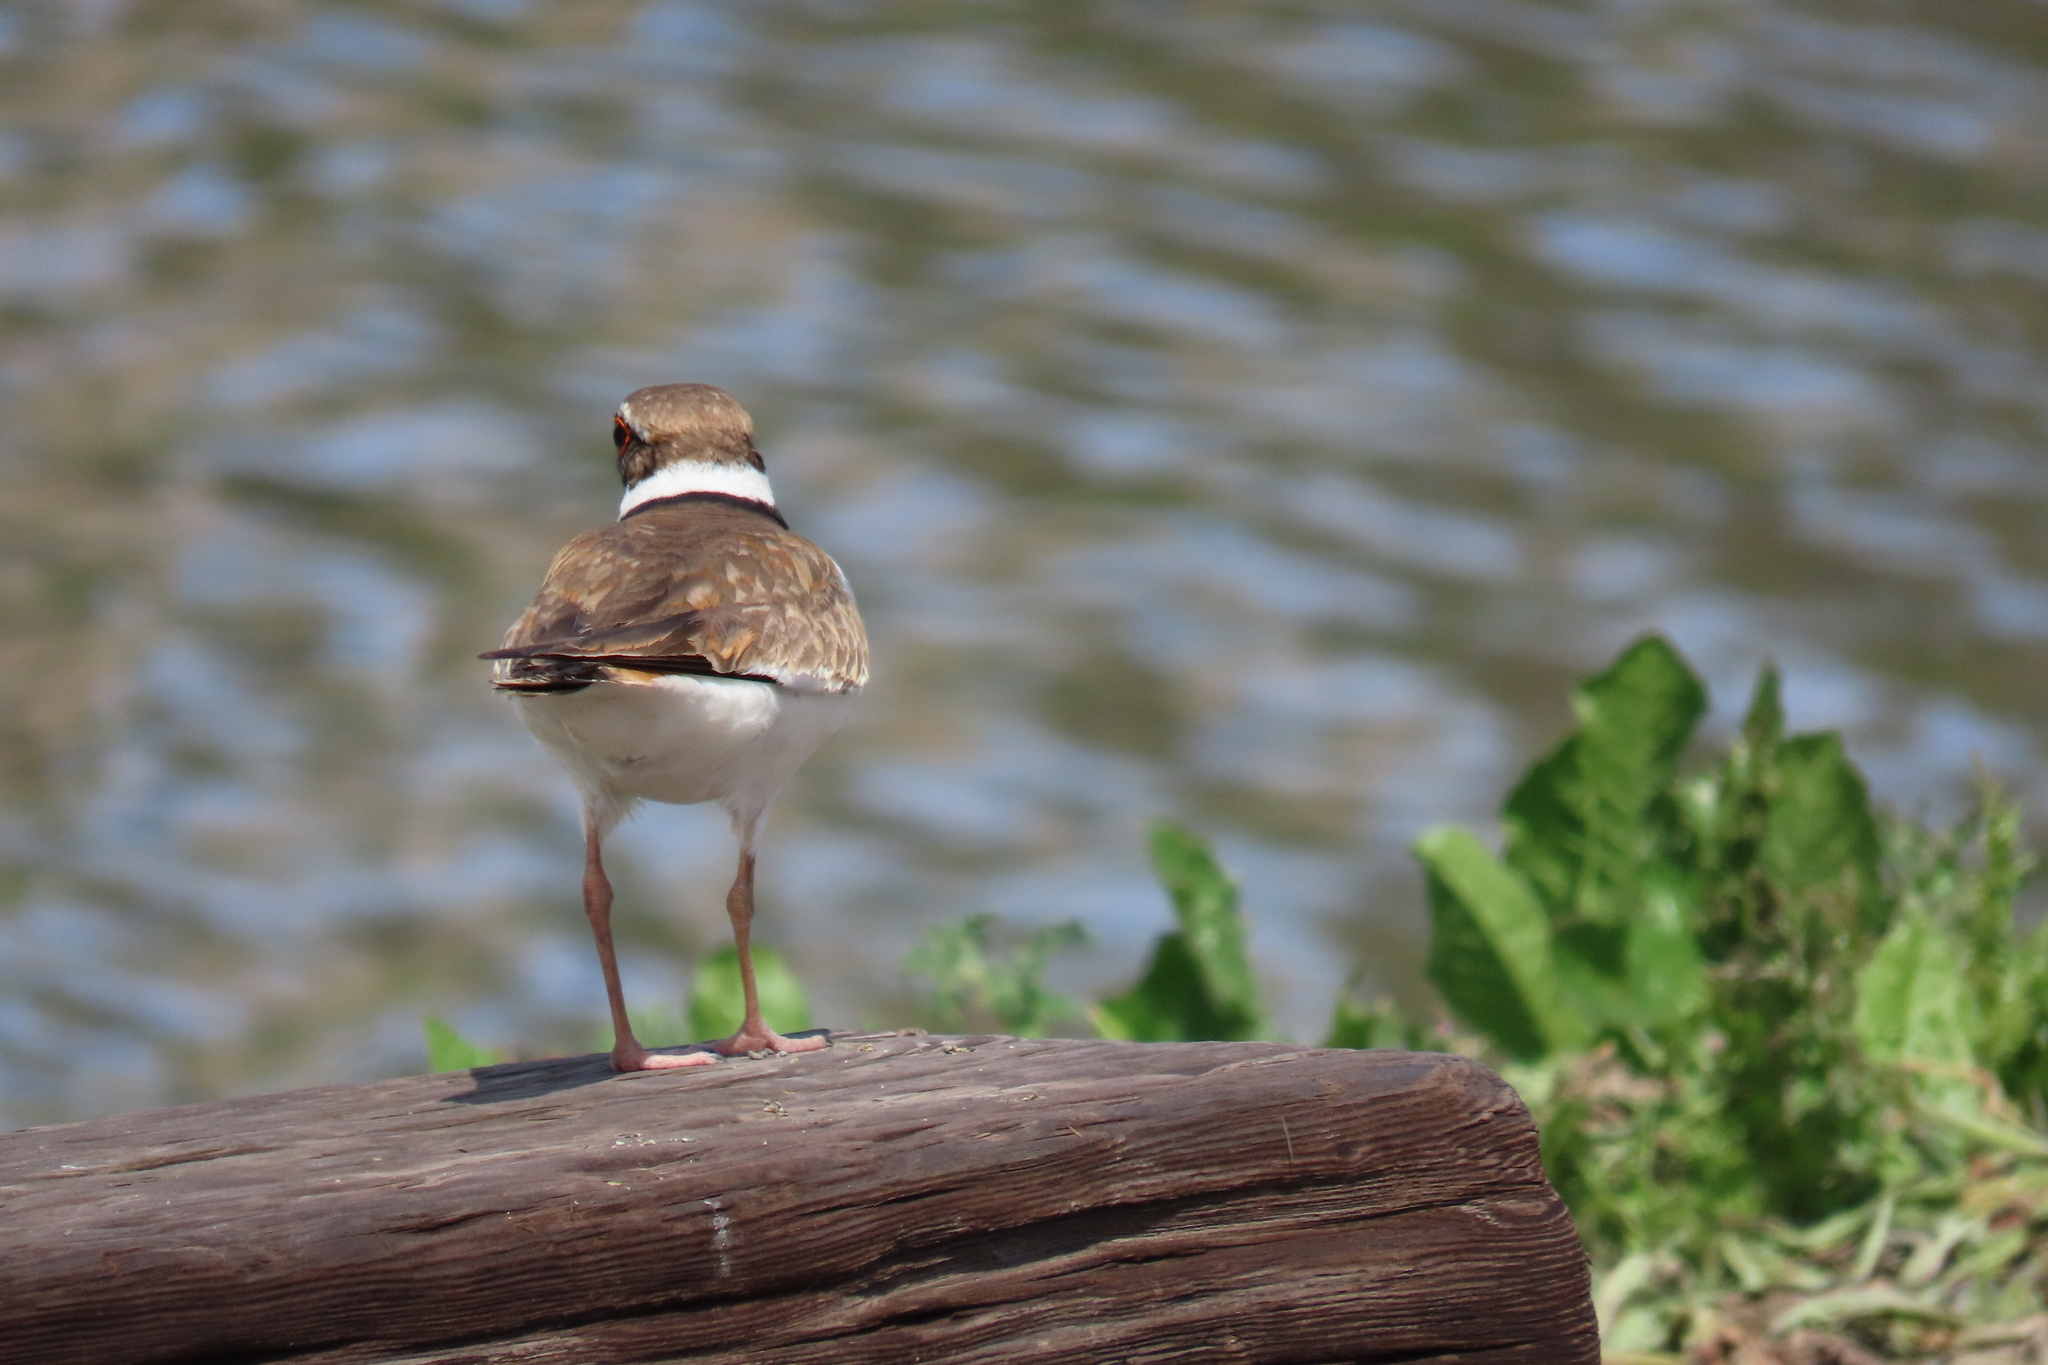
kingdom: Animalia
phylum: Chordata
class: Aves
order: Charadriiformes
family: Charadriidae
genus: Charadrius
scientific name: Charadrius vociferus
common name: Killdeer
